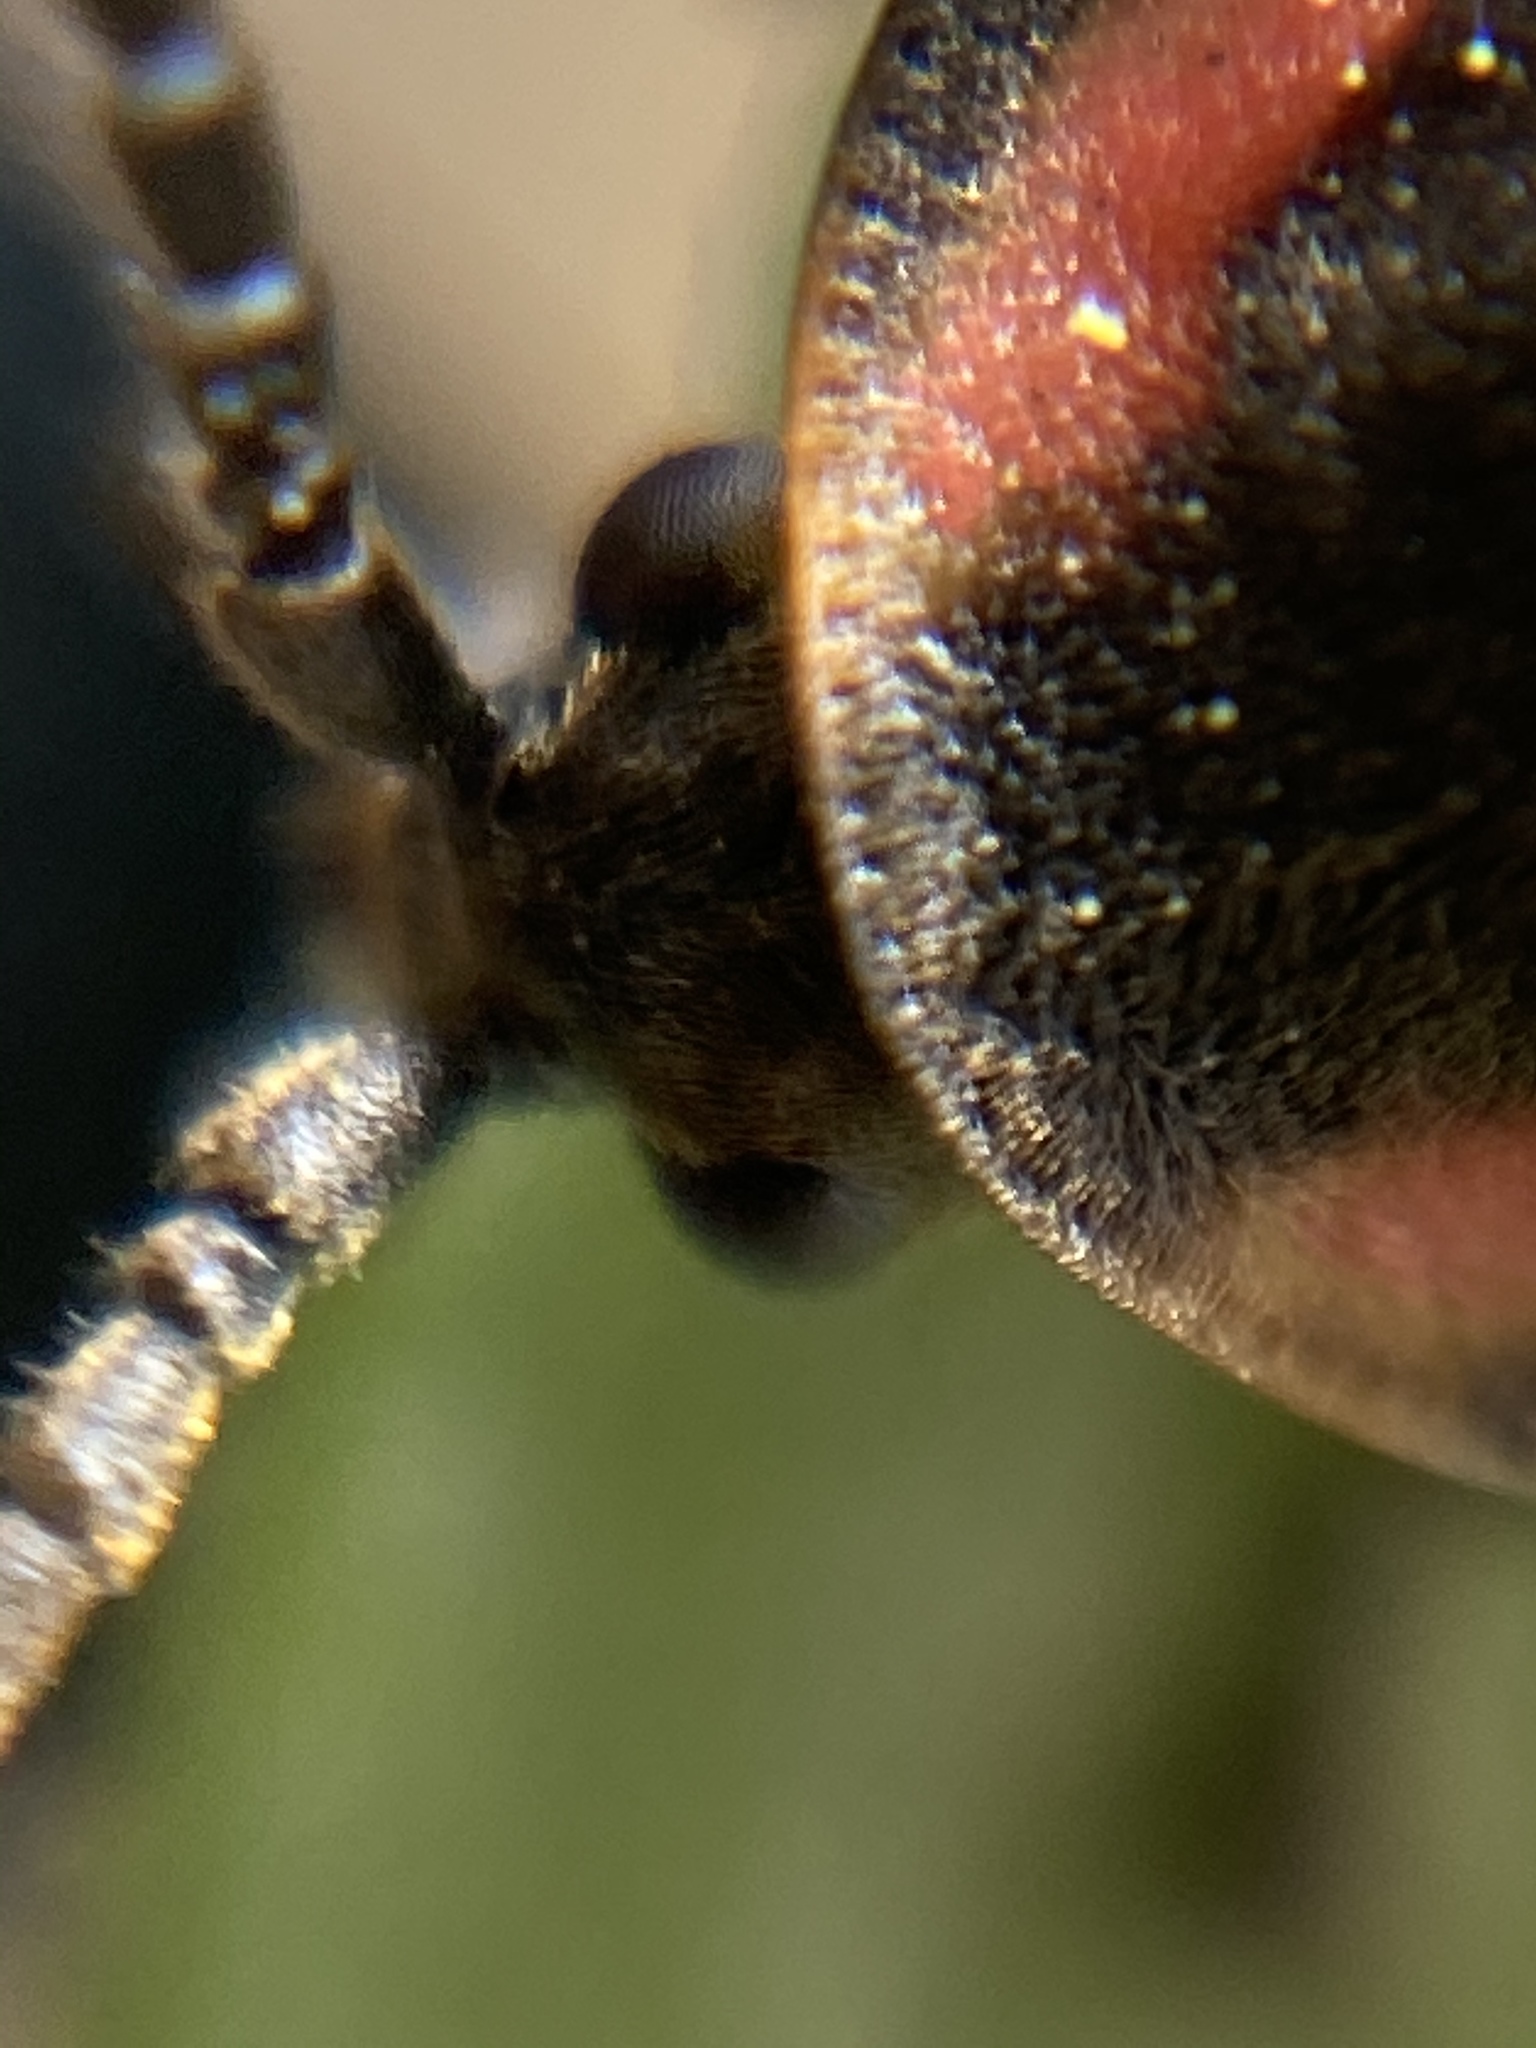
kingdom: Animalia
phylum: Arthropoda
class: Insecta
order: Coleoptera
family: Lampyridae
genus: Photinus
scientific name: Photinus corrusca
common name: Winter firefly
